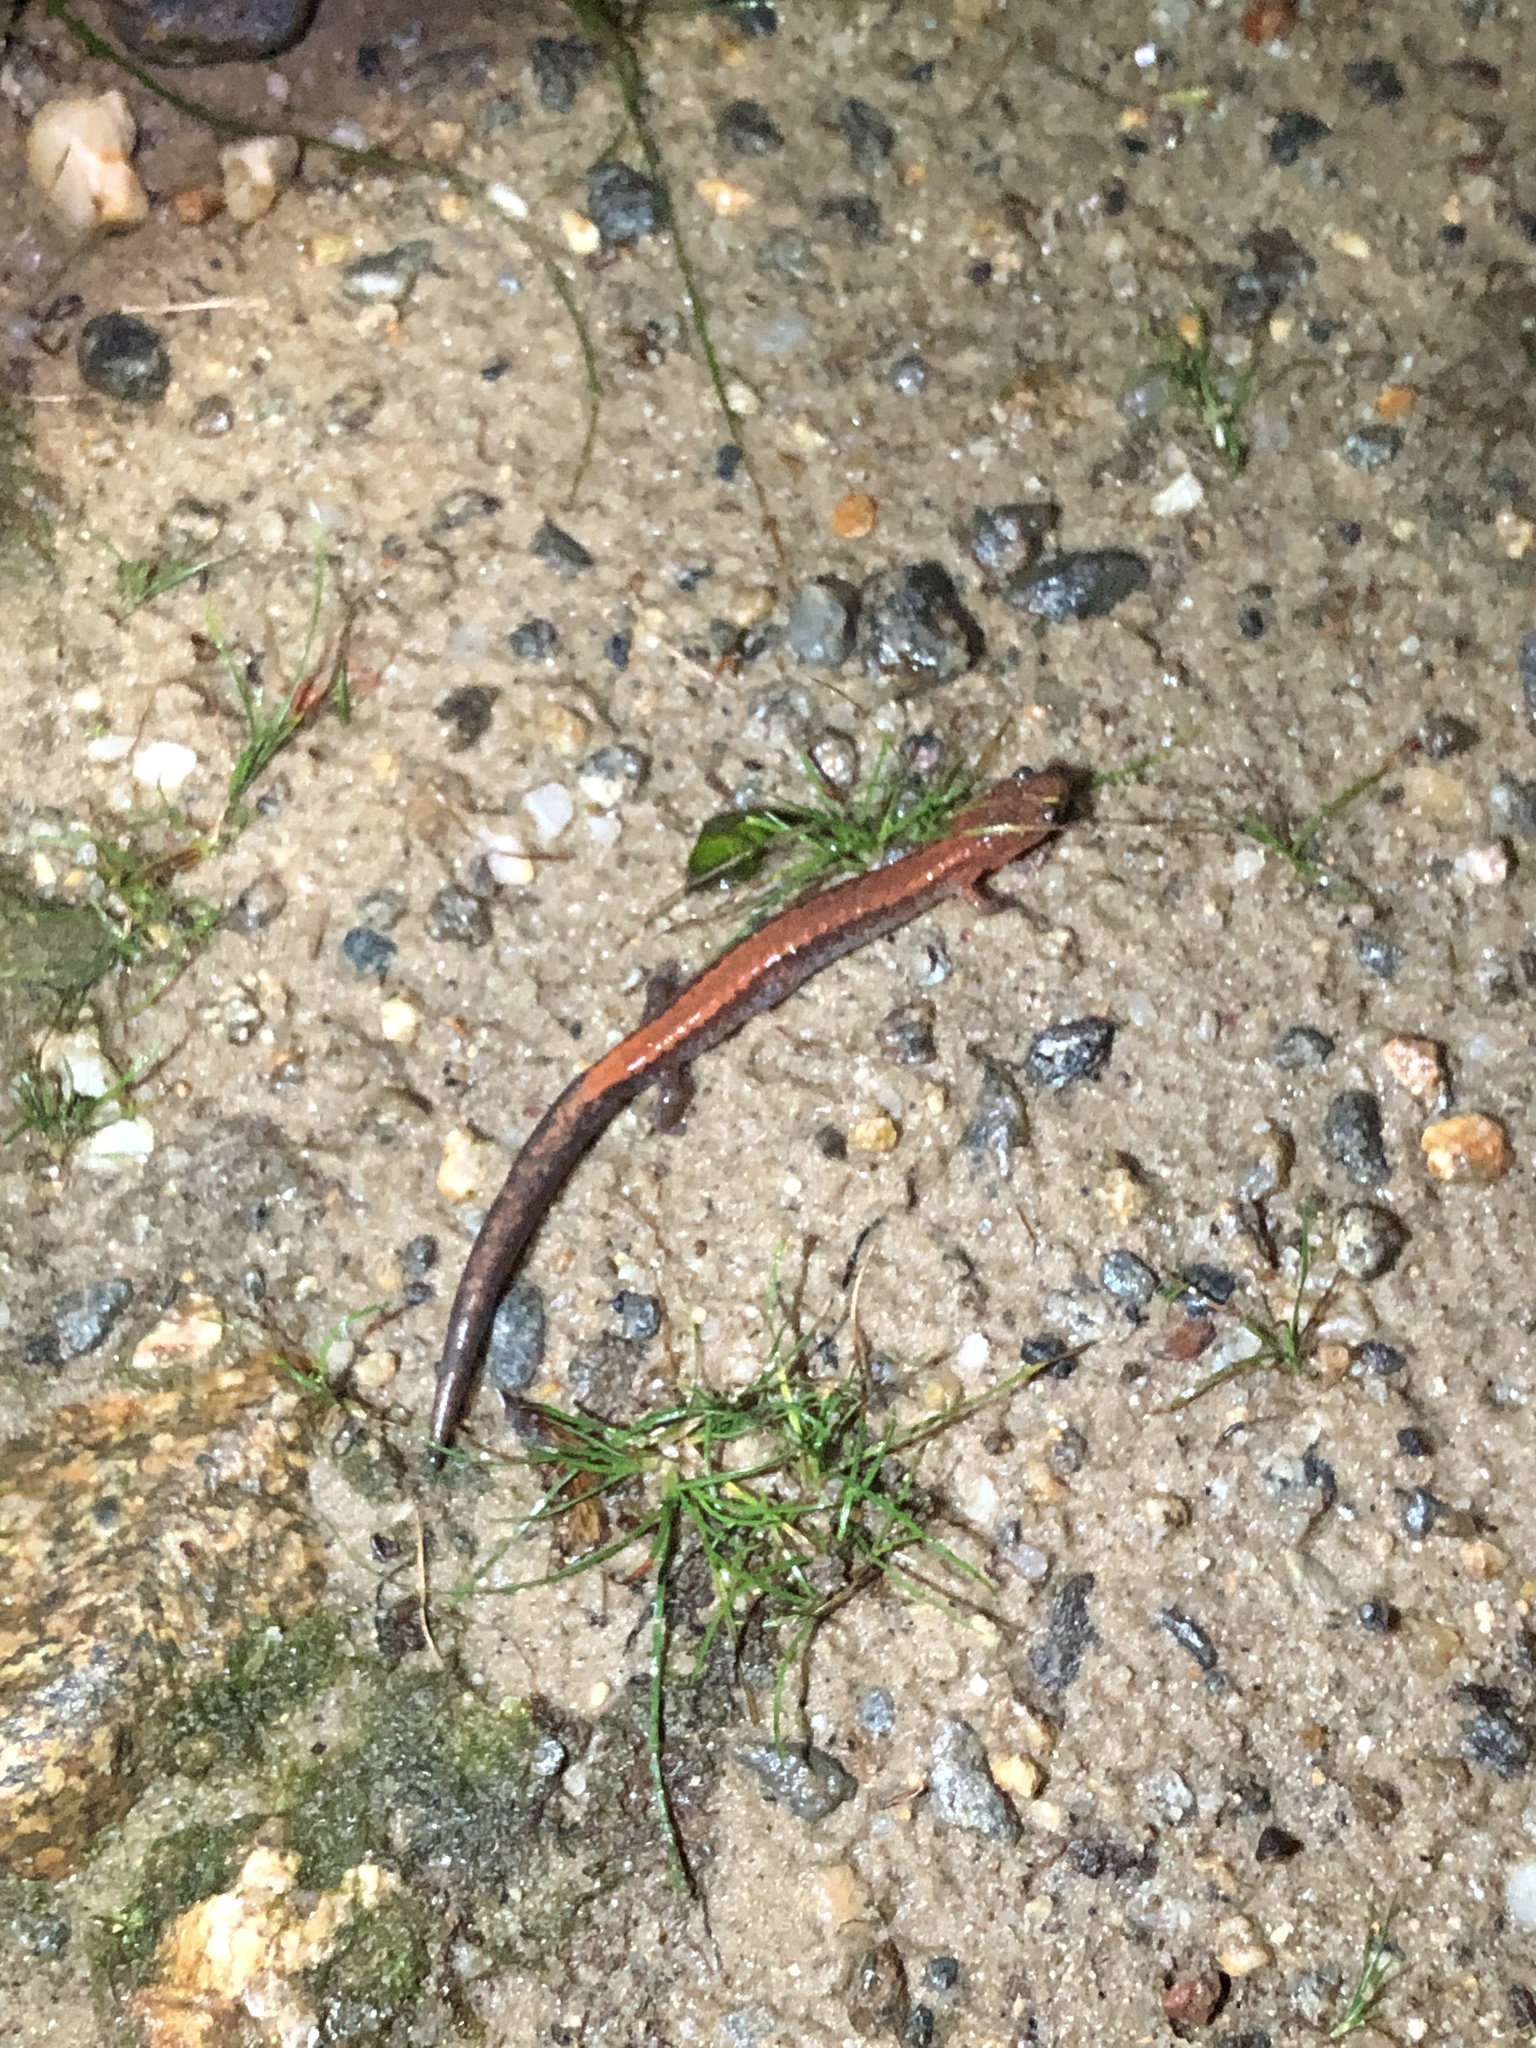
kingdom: Animalia
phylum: Chordata
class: Amphibia
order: Caudata
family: Plethodontidae
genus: Plethodon
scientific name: Plethodon cinereus
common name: Redback salamander
